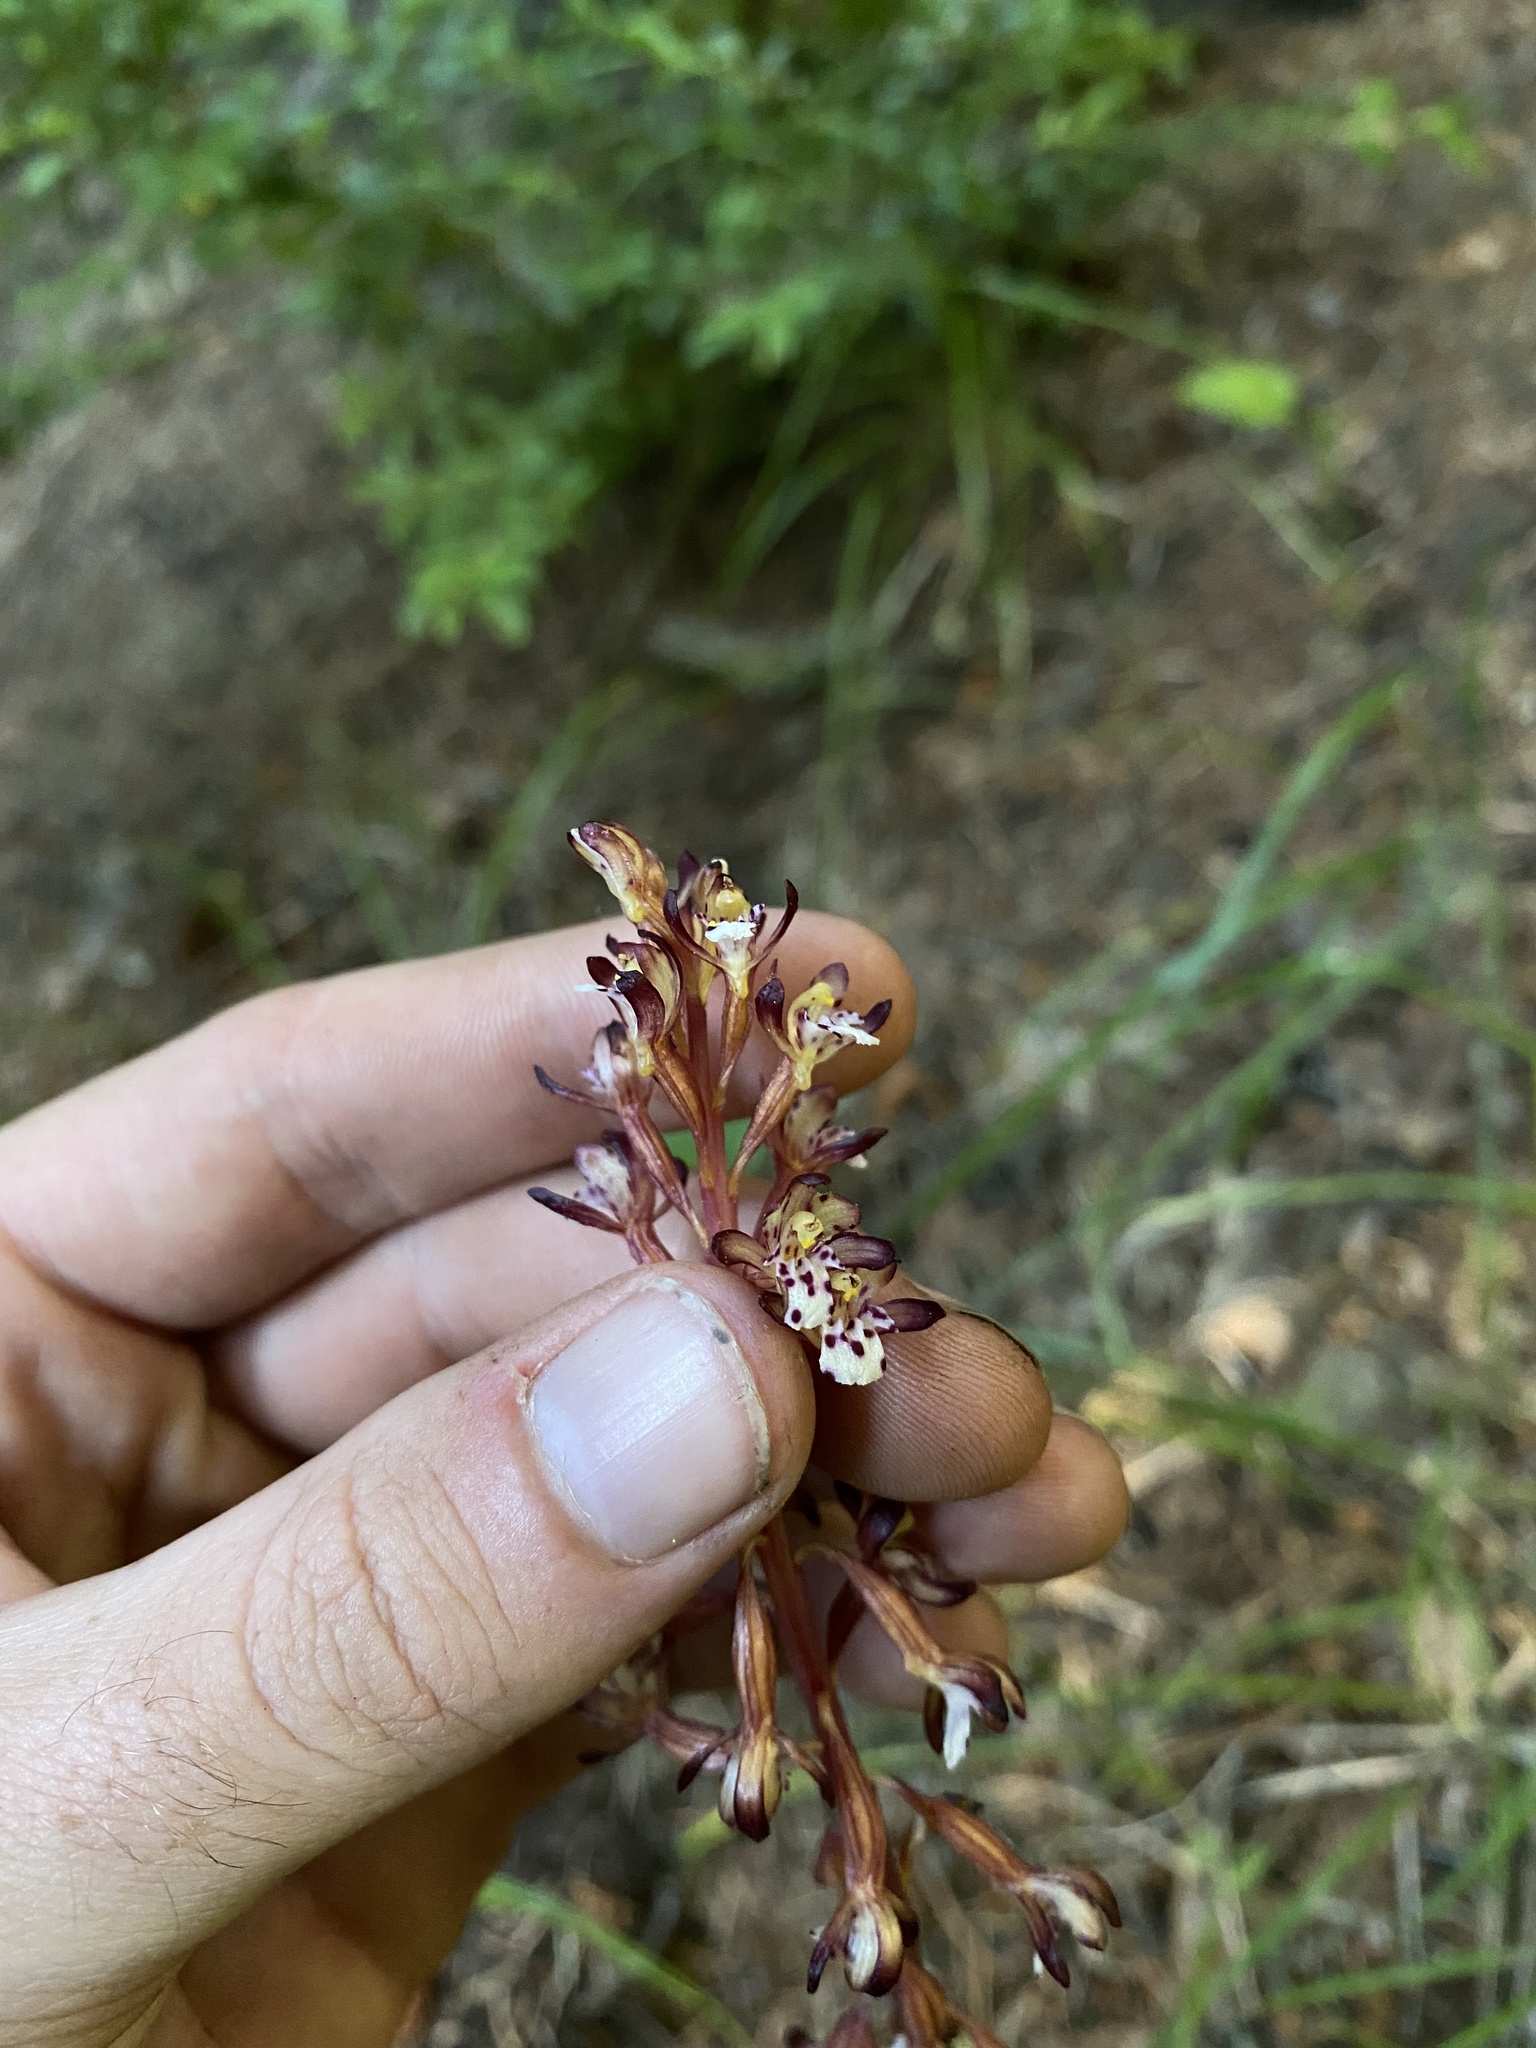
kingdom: Plantae
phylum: Tracheophyta
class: Liliopsida
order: Asparagales
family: Orchidaceae
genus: Corallorhiza
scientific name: Corallorhiza maculata
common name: Spotted coralroot
